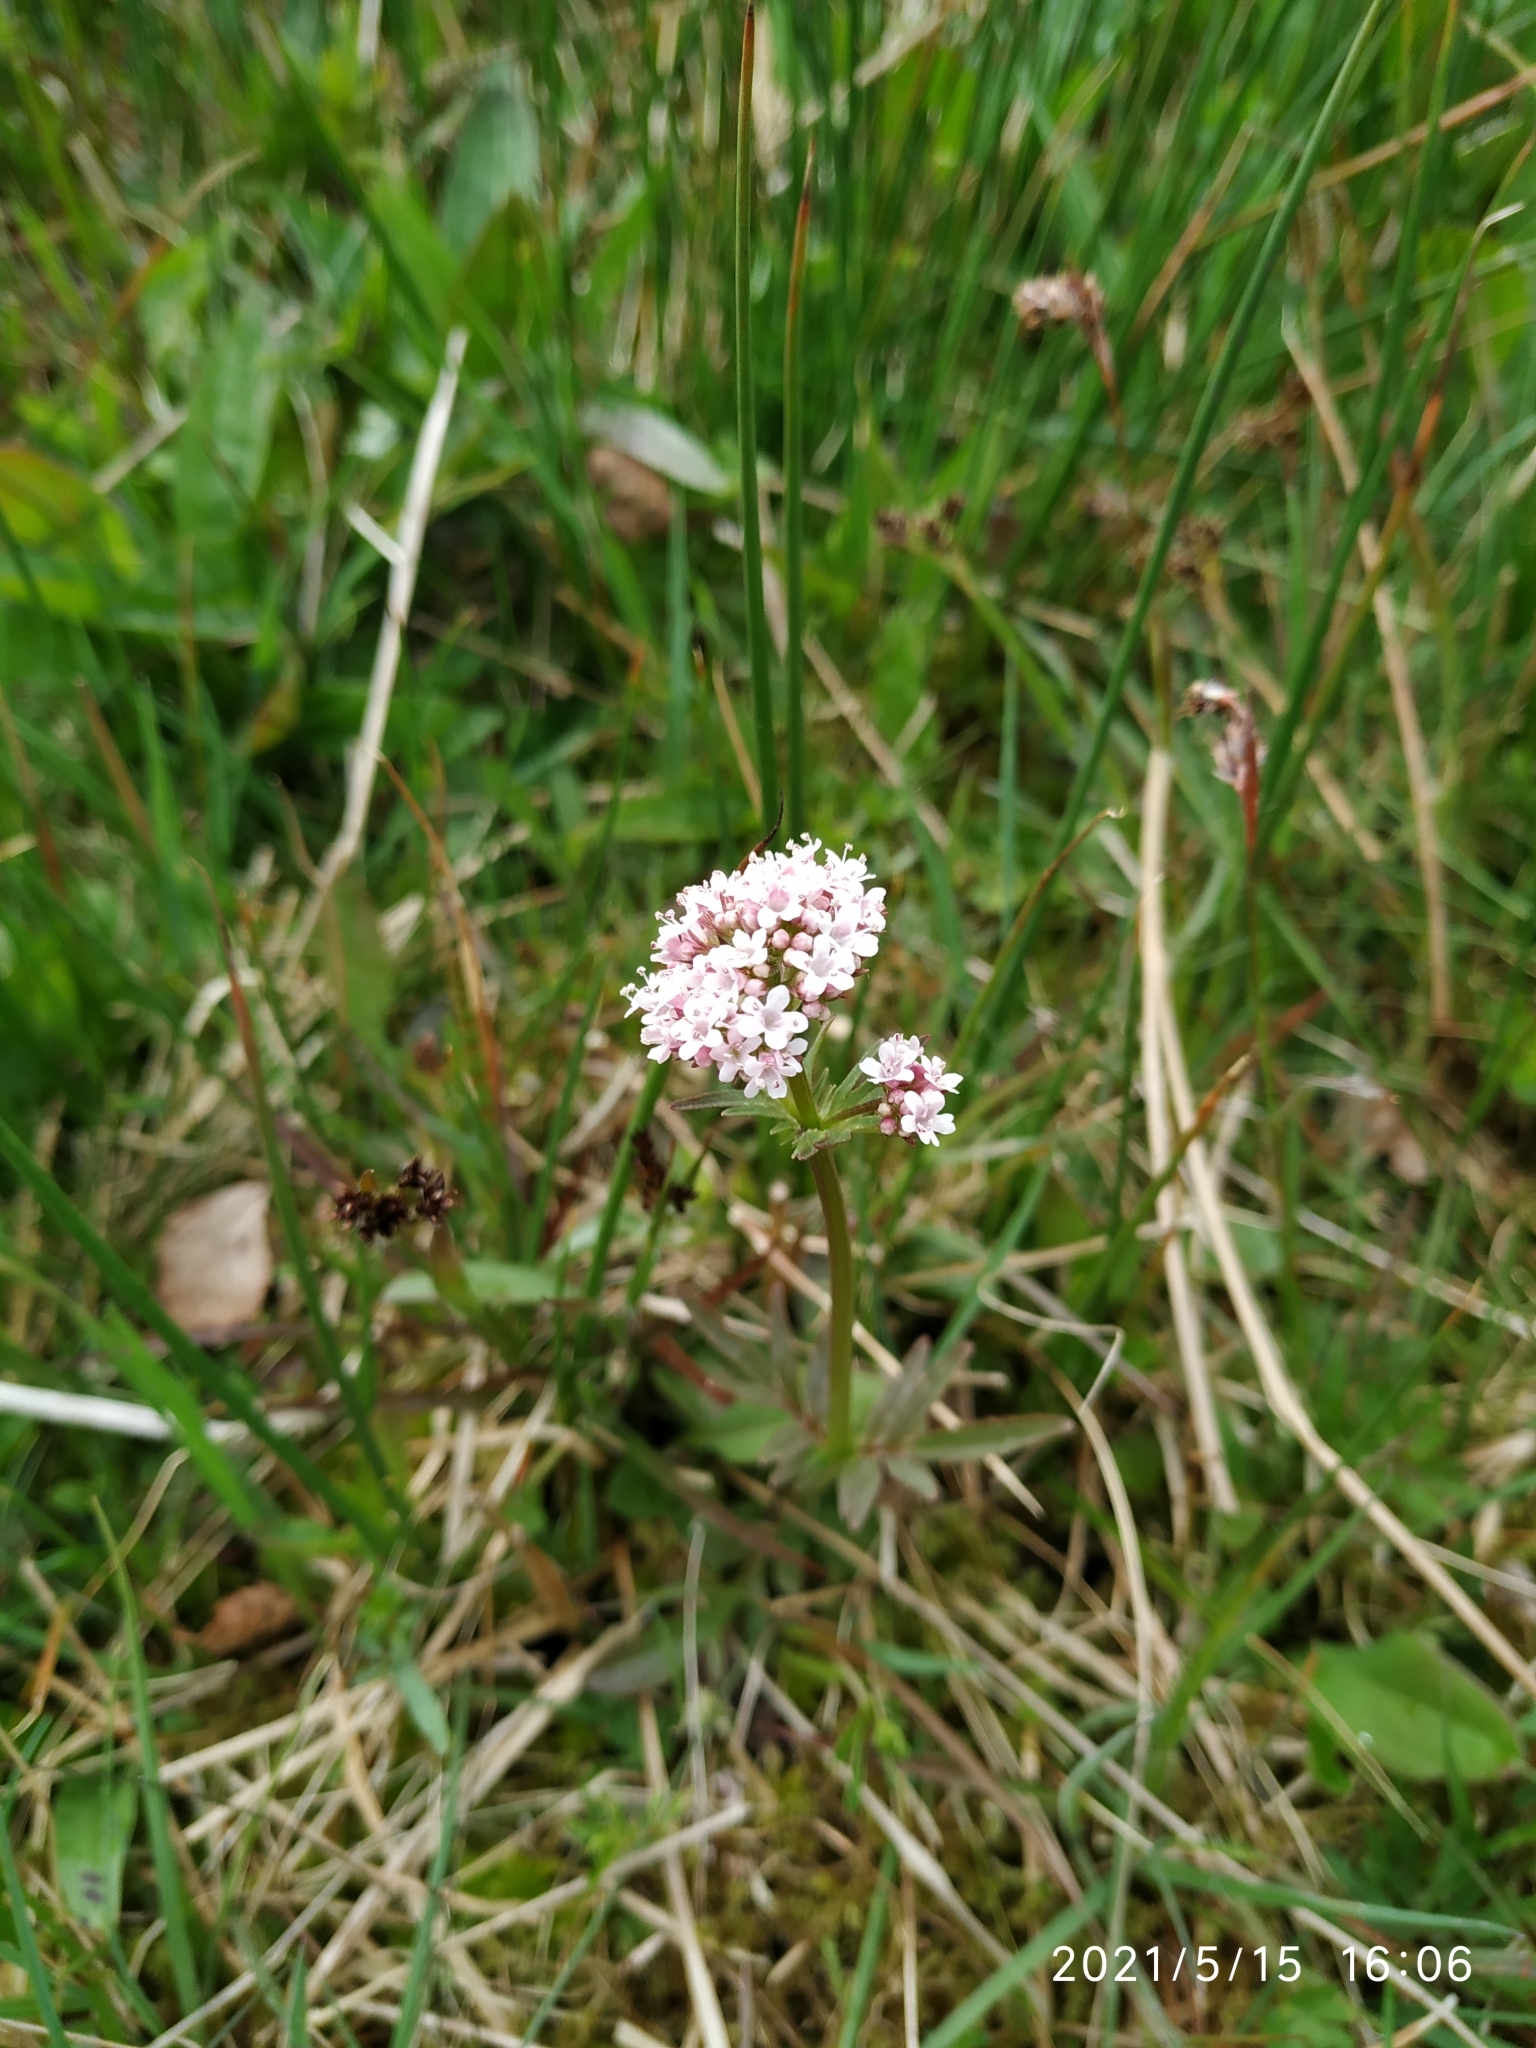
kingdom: Plantae
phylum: Tracheophyta
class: Magnoliopsida
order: Dipsacales
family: Caprifoliaceae
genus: Valeriana
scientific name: Valeriana dioica
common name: Marsh valerian
